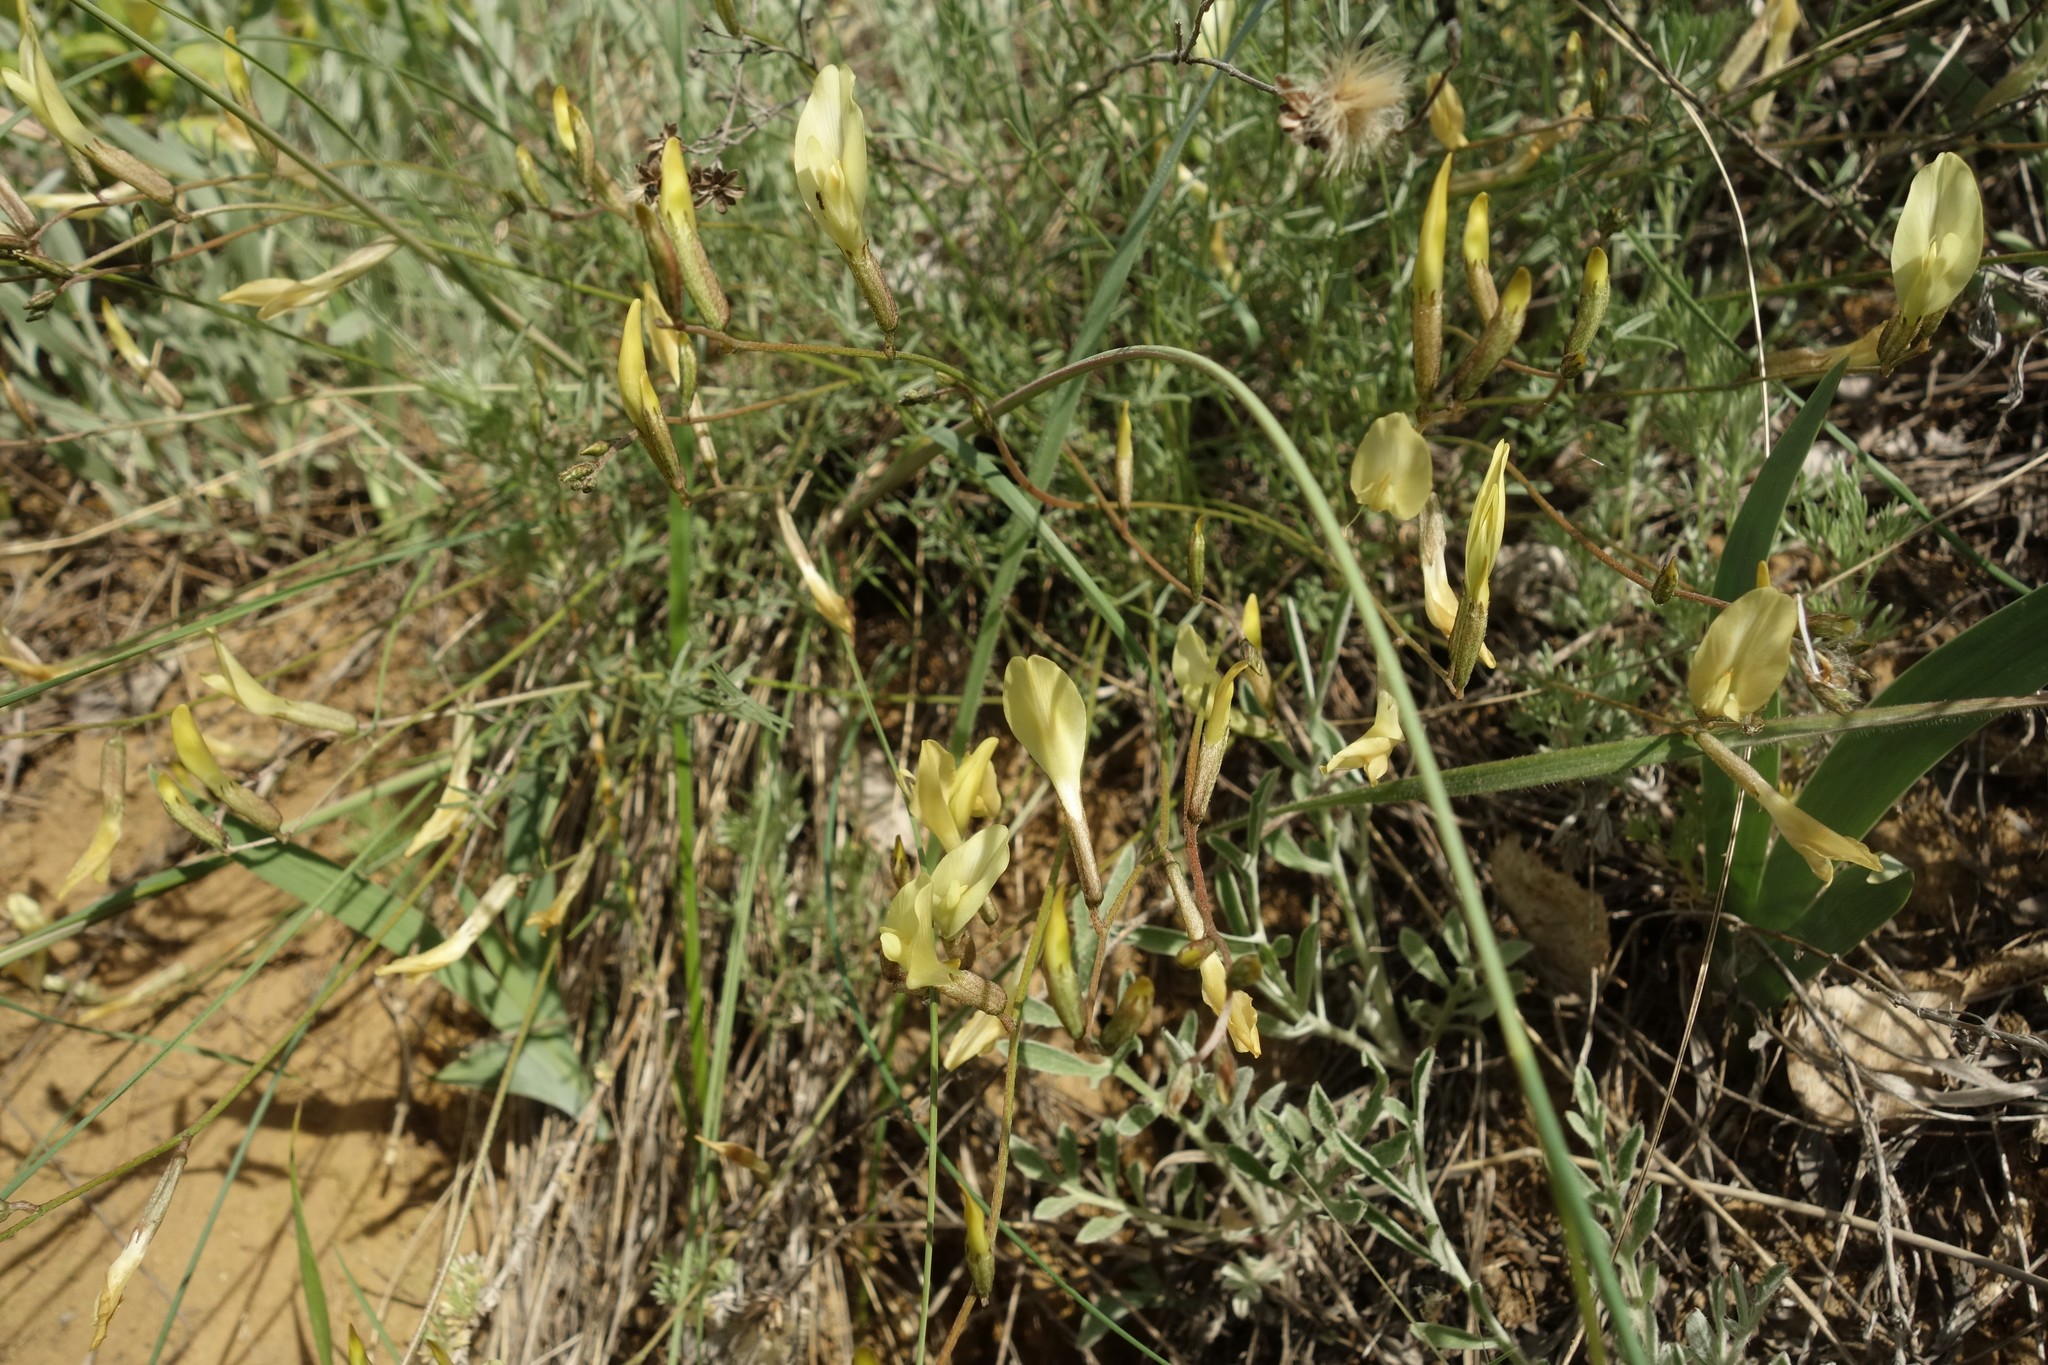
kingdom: Plantae
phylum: Tracheophyta
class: Magnoliopsida
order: Fabales
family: Fabaceae
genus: Astragalus
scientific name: Astragalus ucrainicus
